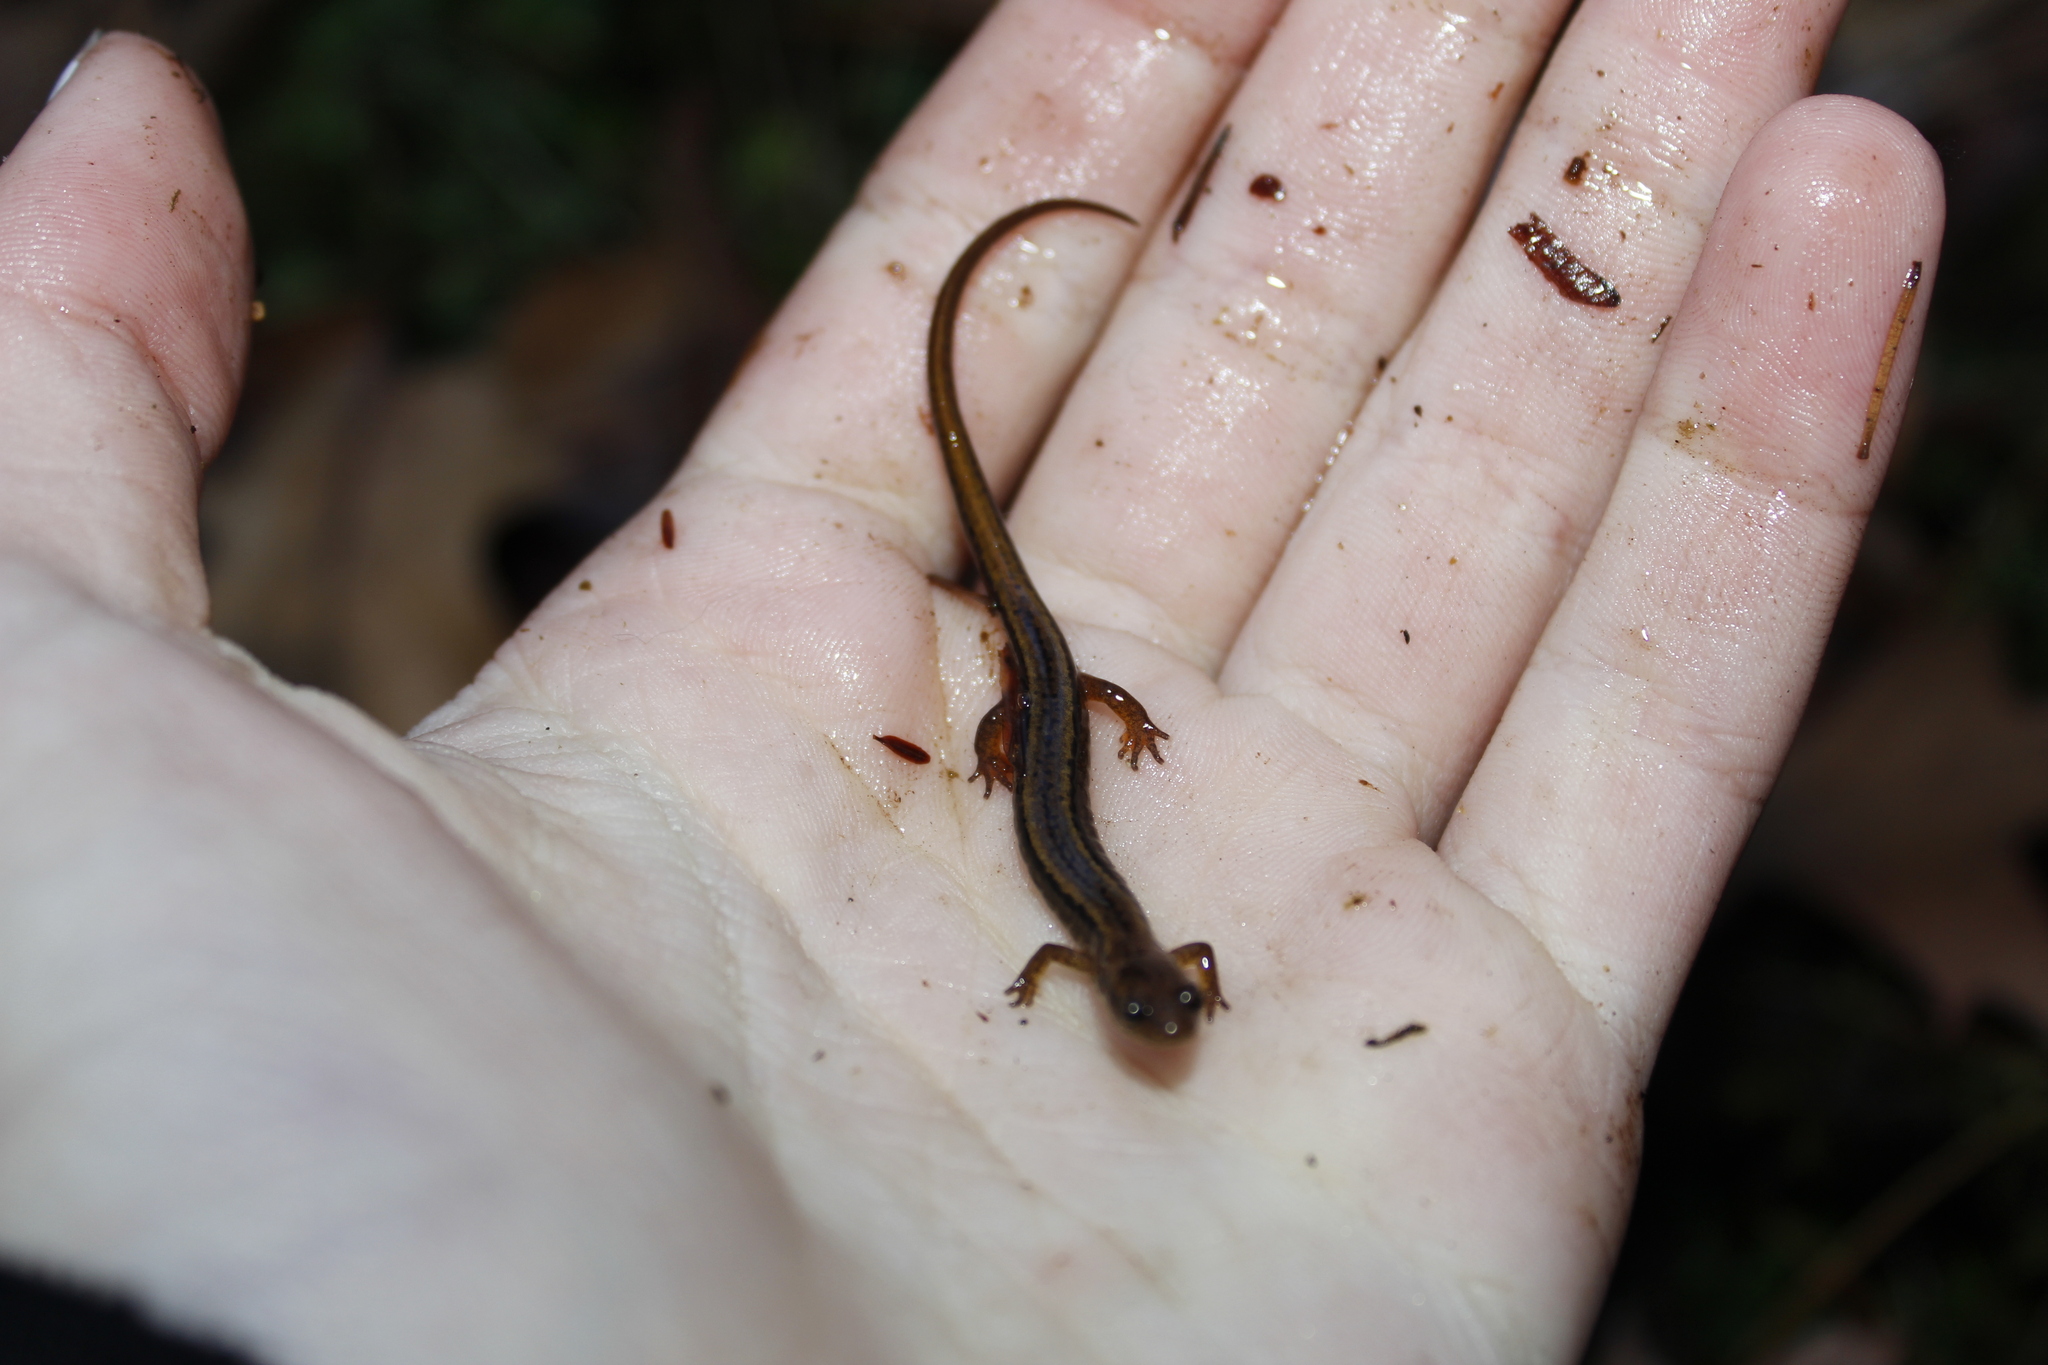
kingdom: Animalia
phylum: Chordata
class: Amphibia
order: Caudata
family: Plethodontidae
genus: Eurycea
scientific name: Eurycea bislineata
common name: Northern two-lined salamander
